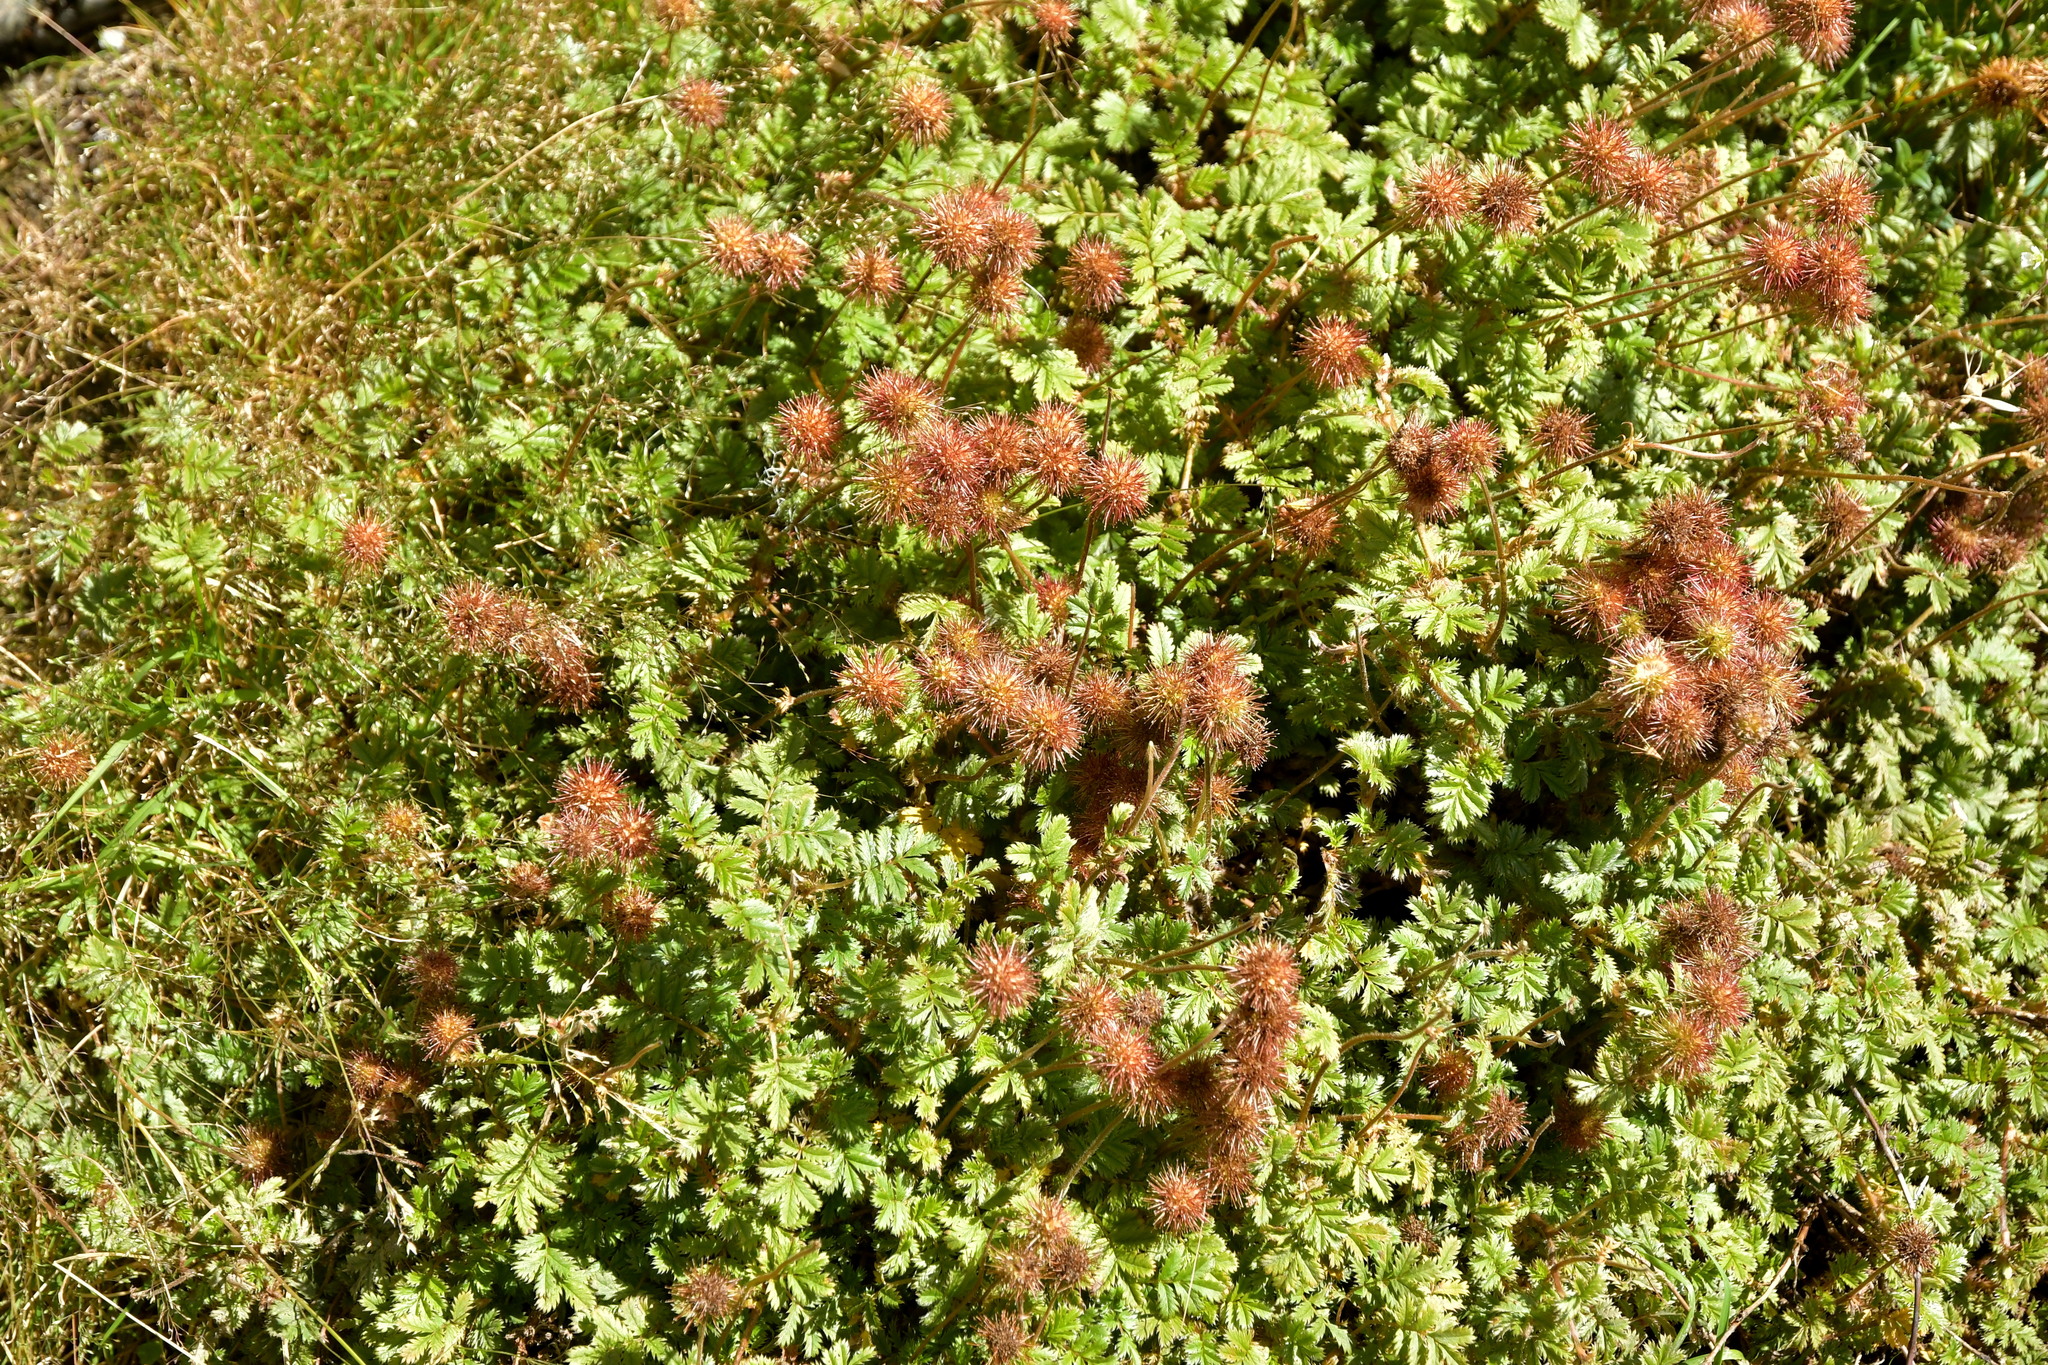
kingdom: Plantae
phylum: Tracheophyta
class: Magnoliopsida
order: Rosales
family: Rosaceae
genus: Acaena
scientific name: Acaena anserinifolia
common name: Bronze pirri-pirri-bur
